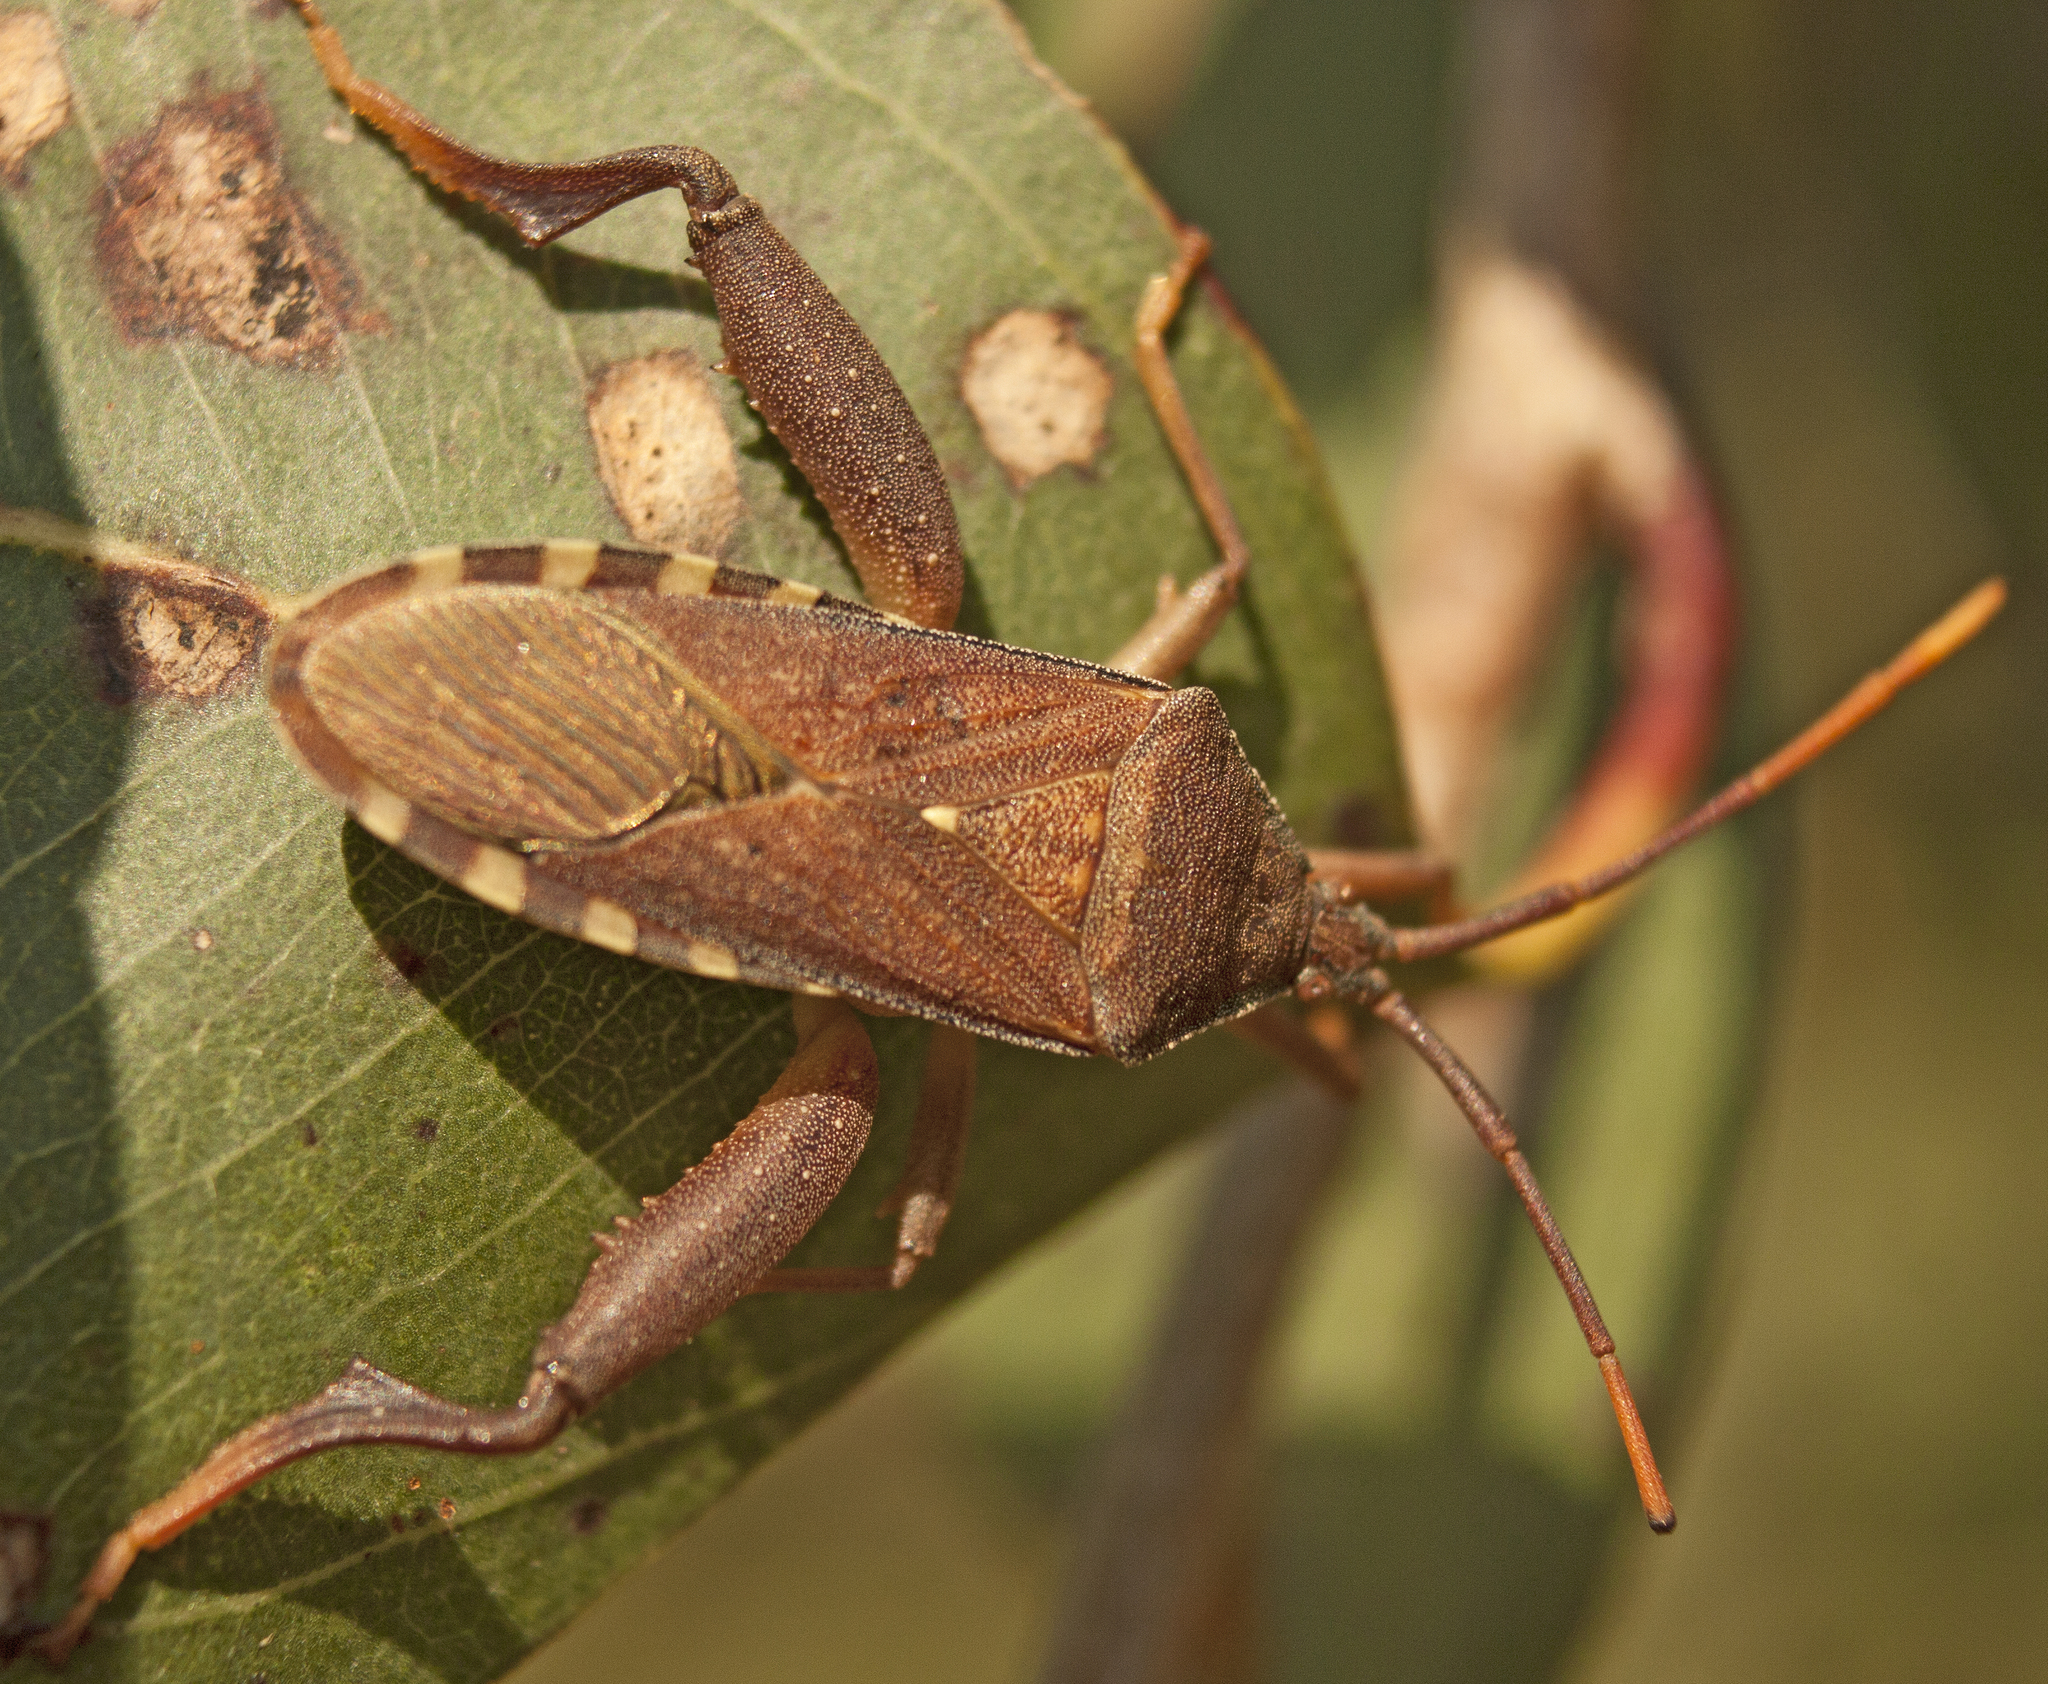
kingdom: Animalia
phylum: Arthropoda
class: Insecta
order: Hemiptera
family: Coreidae
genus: Amorbus
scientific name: Amorbus alternatus
